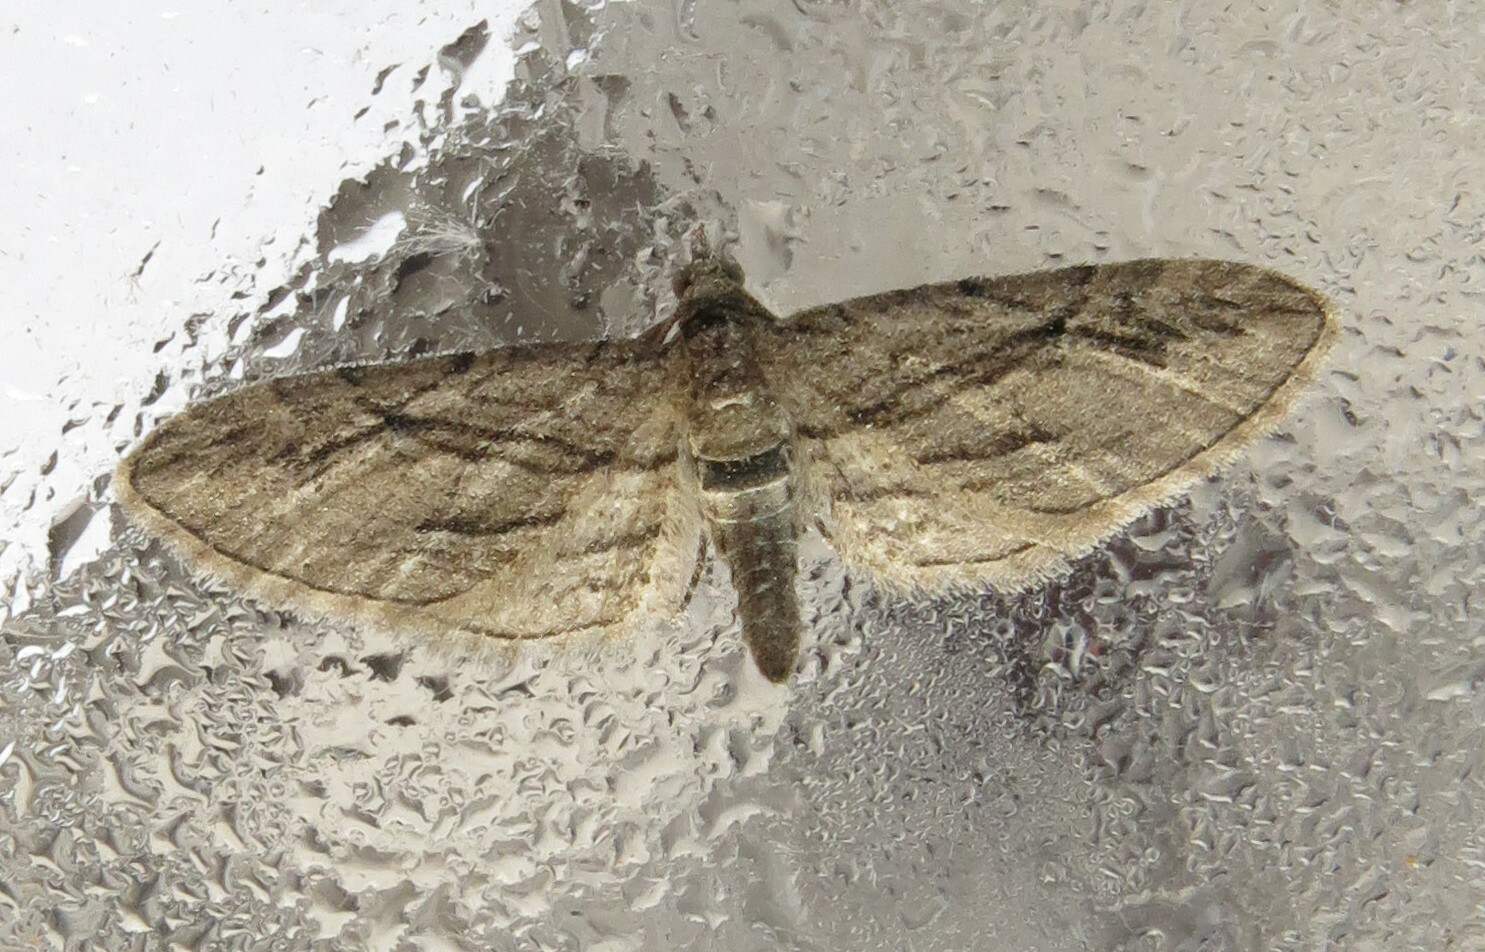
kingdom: Animalia
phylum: Arthropoda
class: Insecta
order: Lepidoptera
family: Geometridae
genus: Eupithecia
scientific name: Eupithecia phoeniceata
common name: Cypress pug
